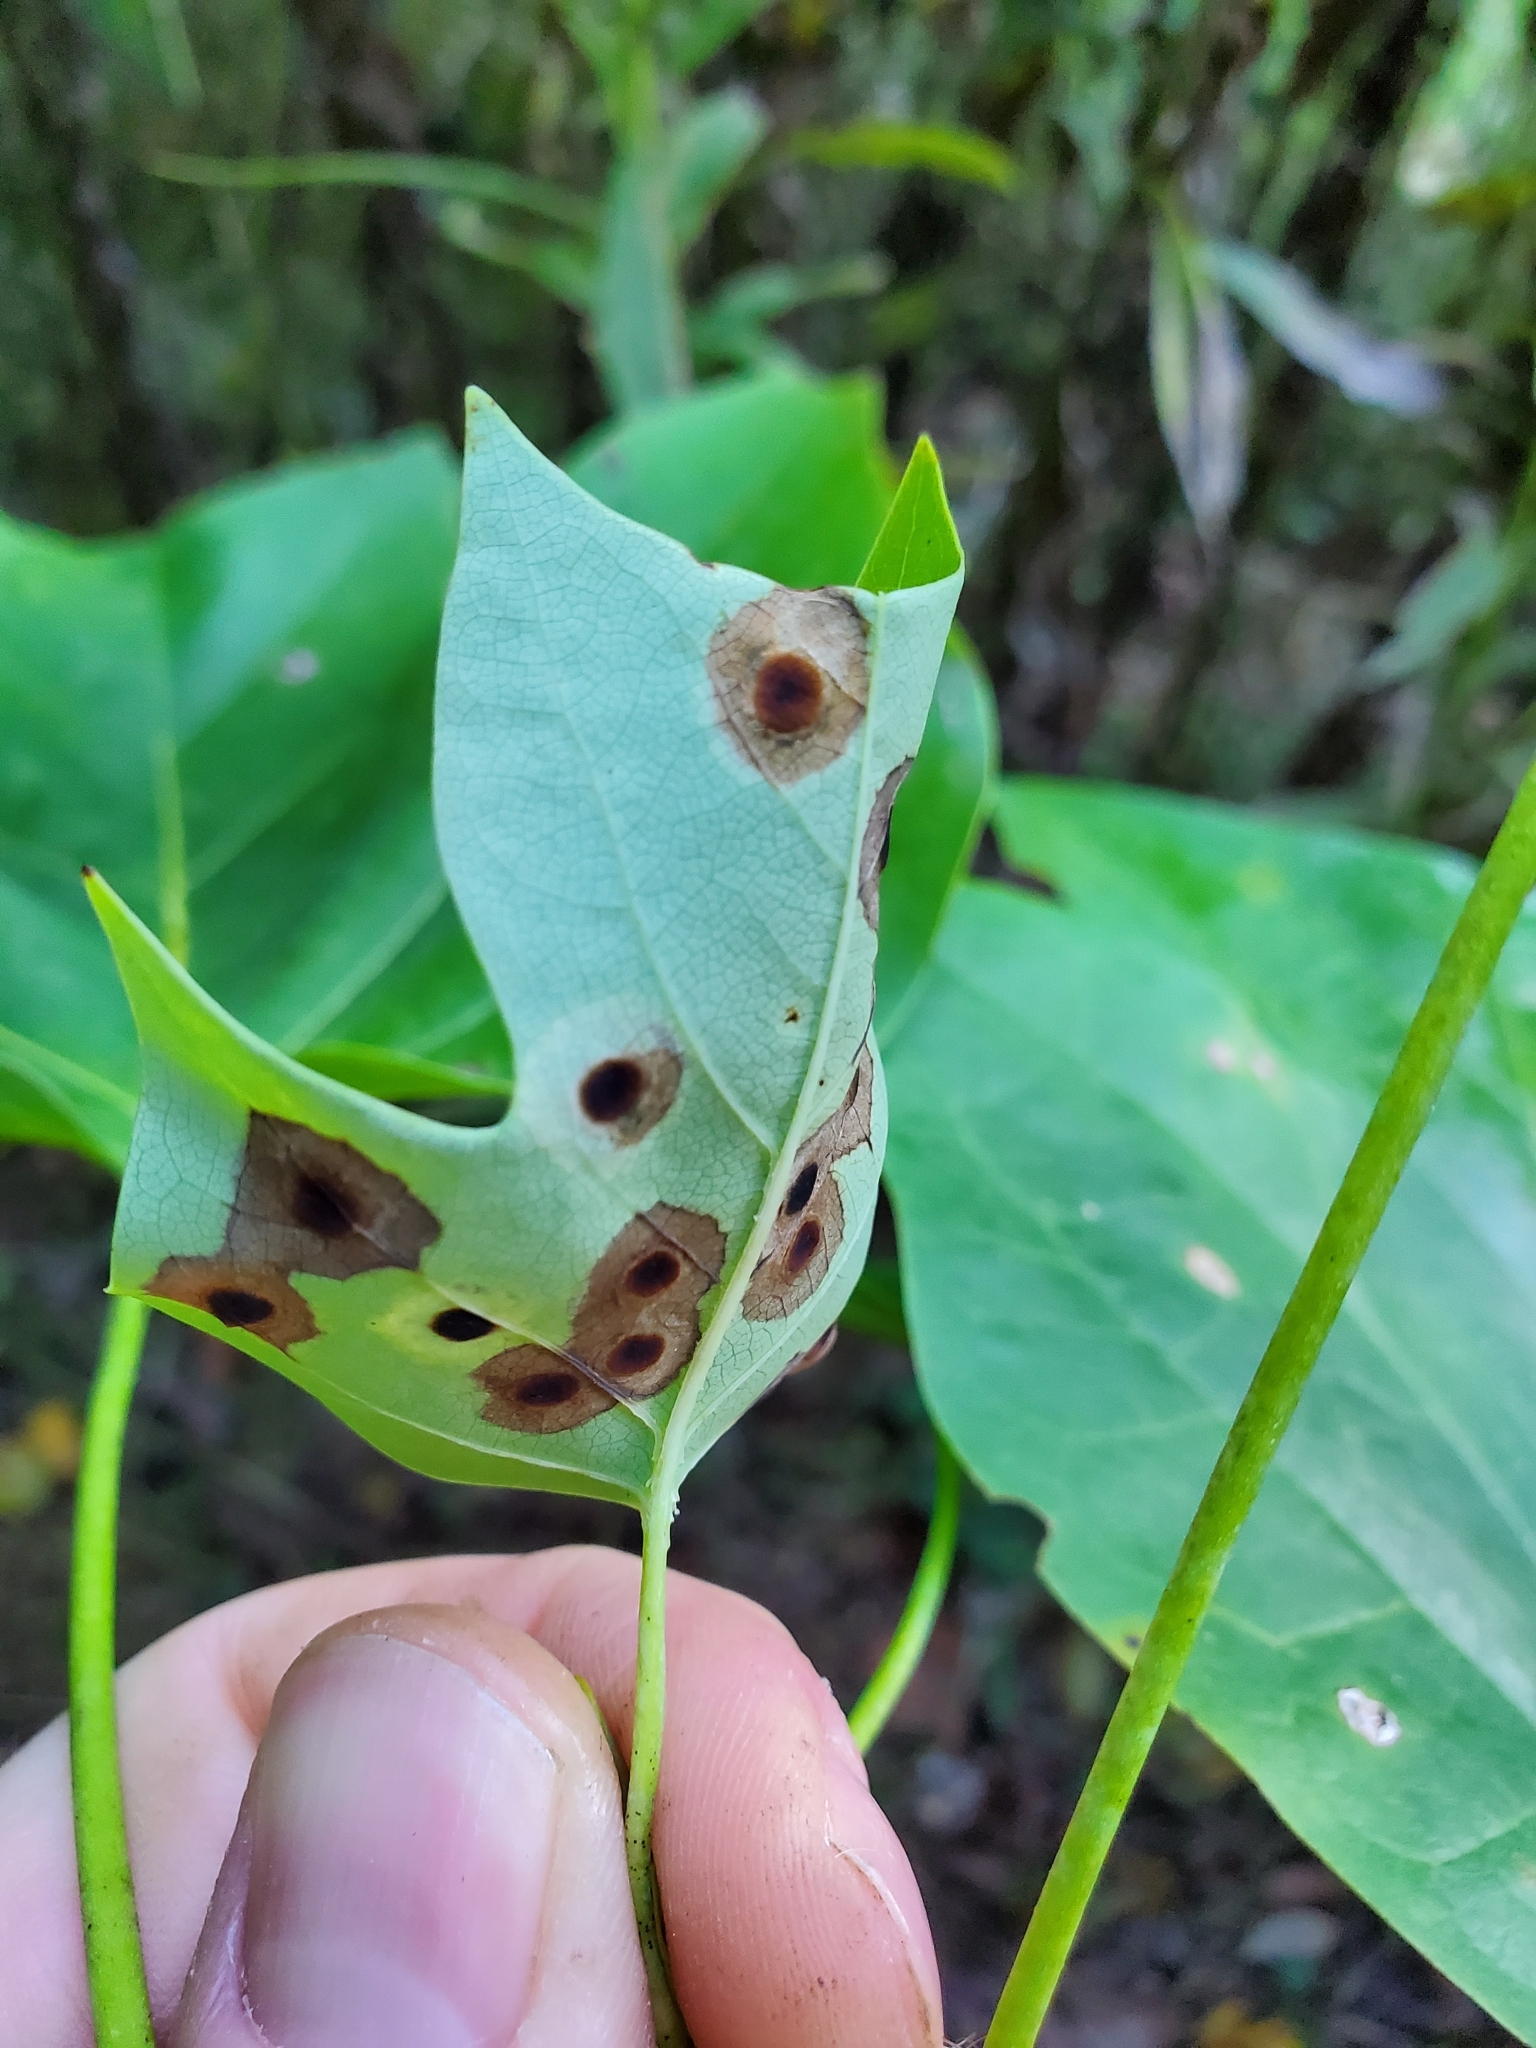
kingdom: Animalia
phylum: Arthropoda
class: Insecta
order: Diptera
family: Cecidomyiidae
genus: Resseliella
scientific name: Resseliella liriodendri
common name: Tulip tree leaf spot gall midge
